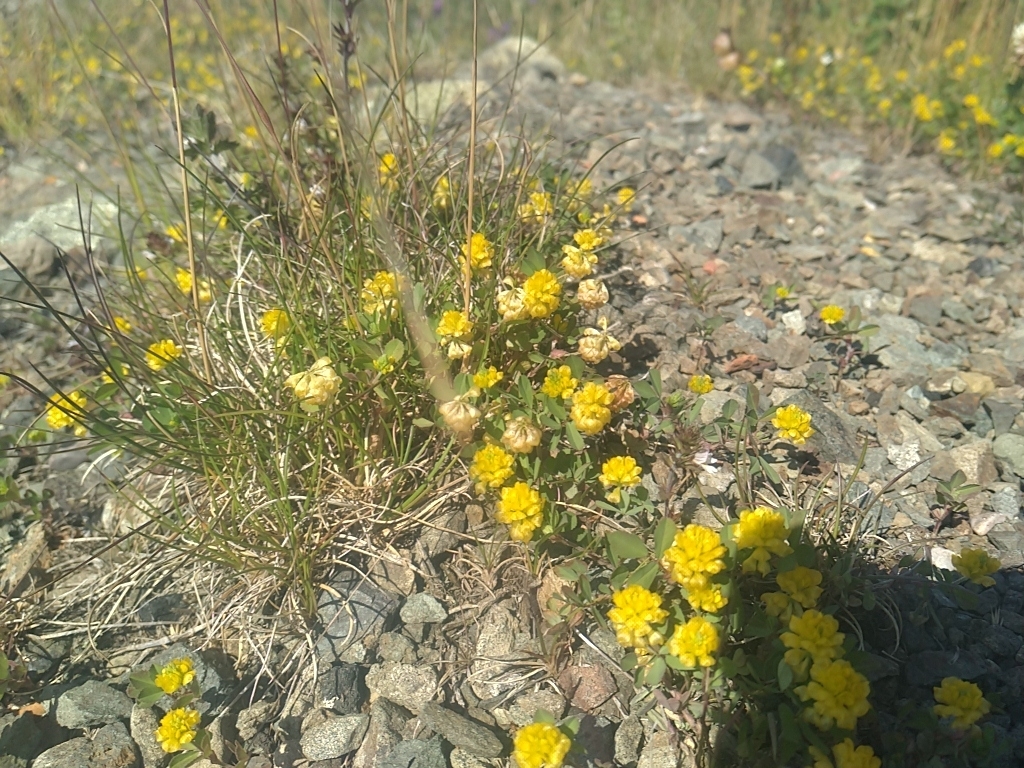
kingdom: Plantae
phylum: Tracheophyta
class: Magnoliopsida
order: Fabales
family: Fabaceae
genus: Trifolium
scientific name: Trifolium campestre
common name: Field clover
